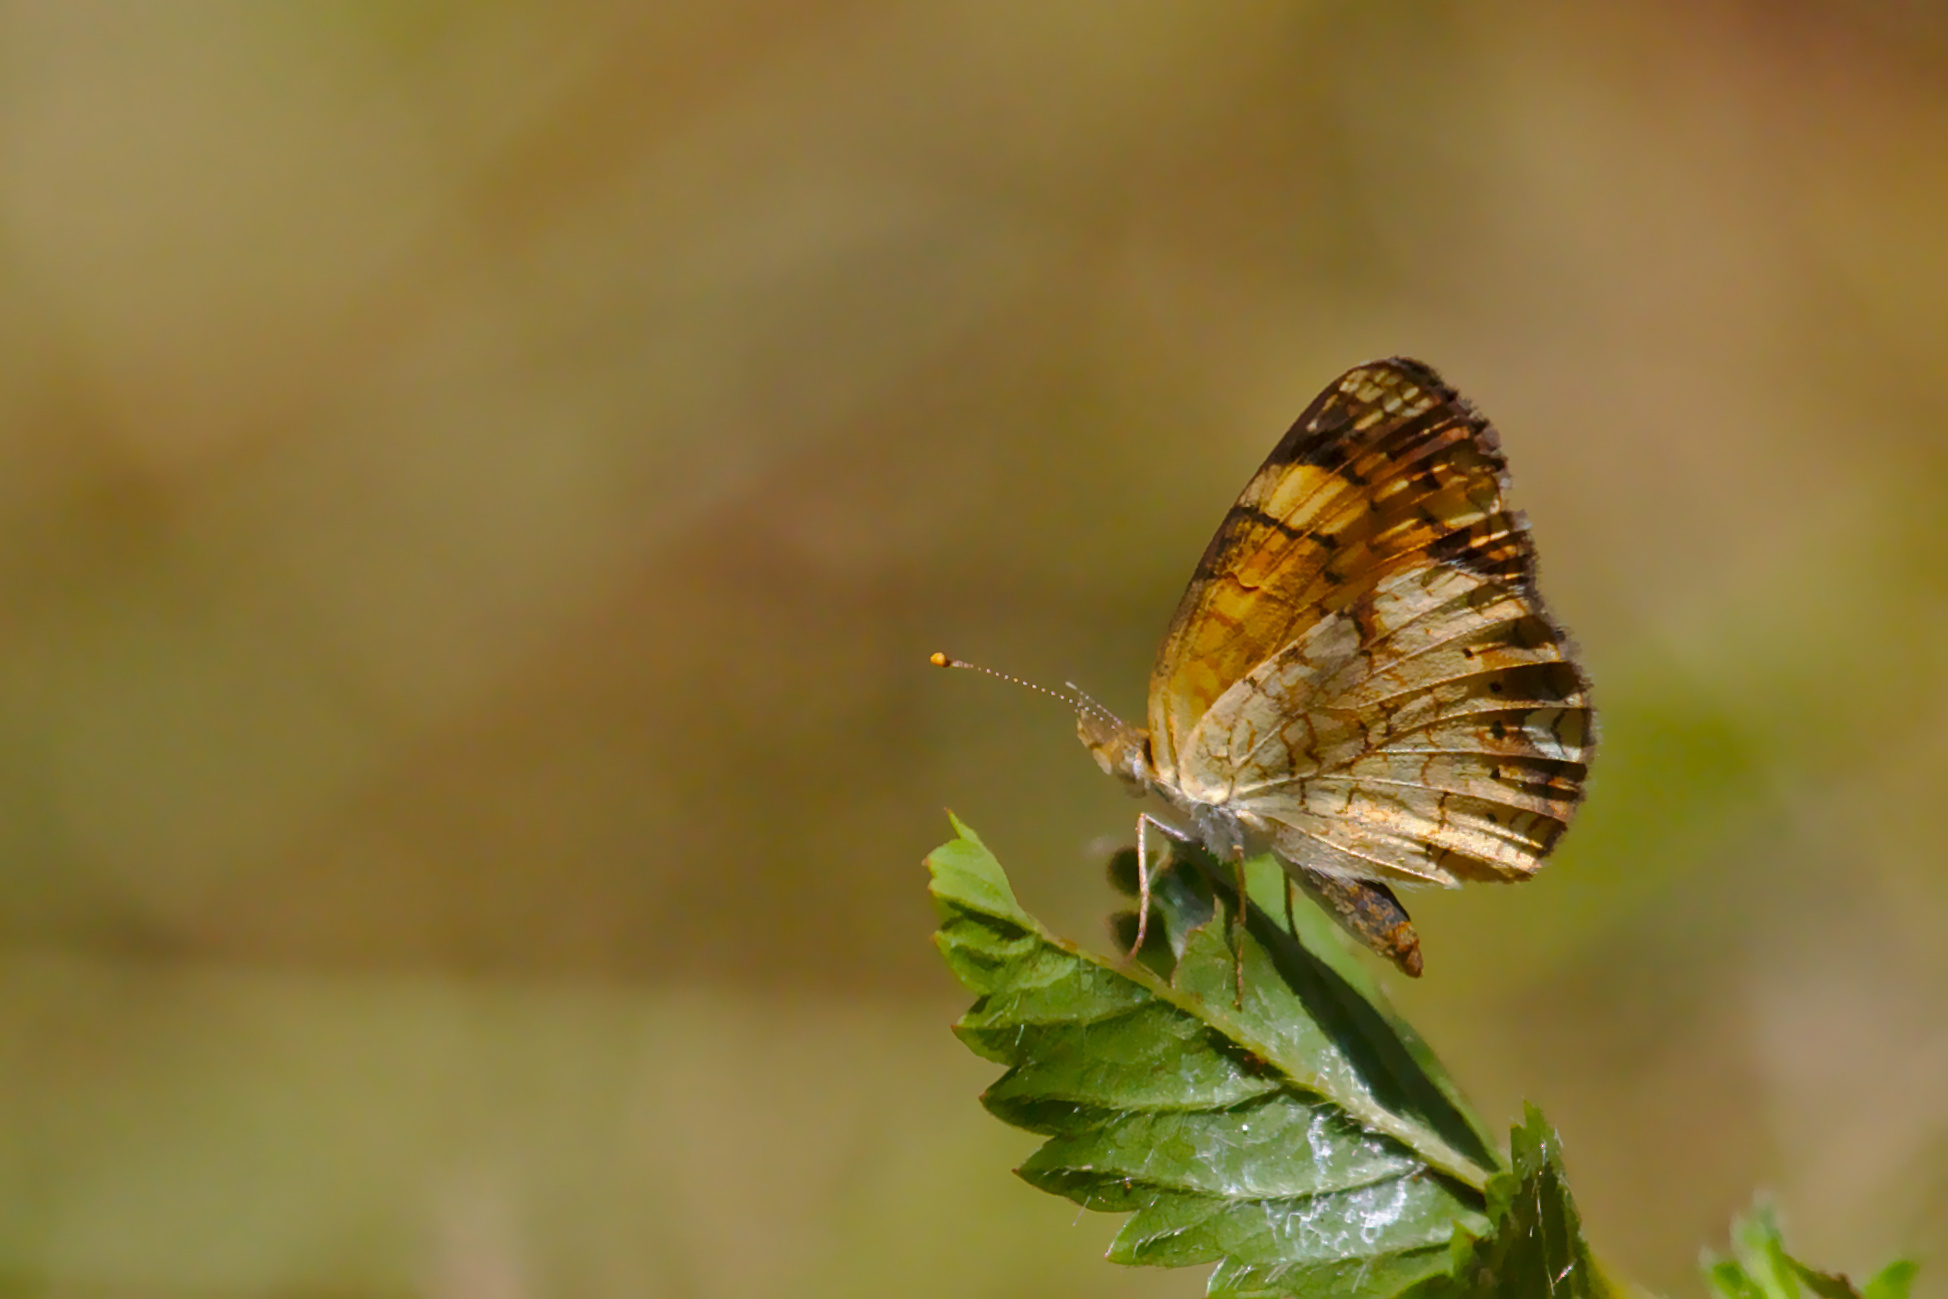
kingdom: Animalia
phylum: Arthropoda
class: Insecta
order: Lepidoptera
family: Nymphalidae
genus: Phyciodes
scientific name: Phyciodes tharos
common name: Pearl crescent
